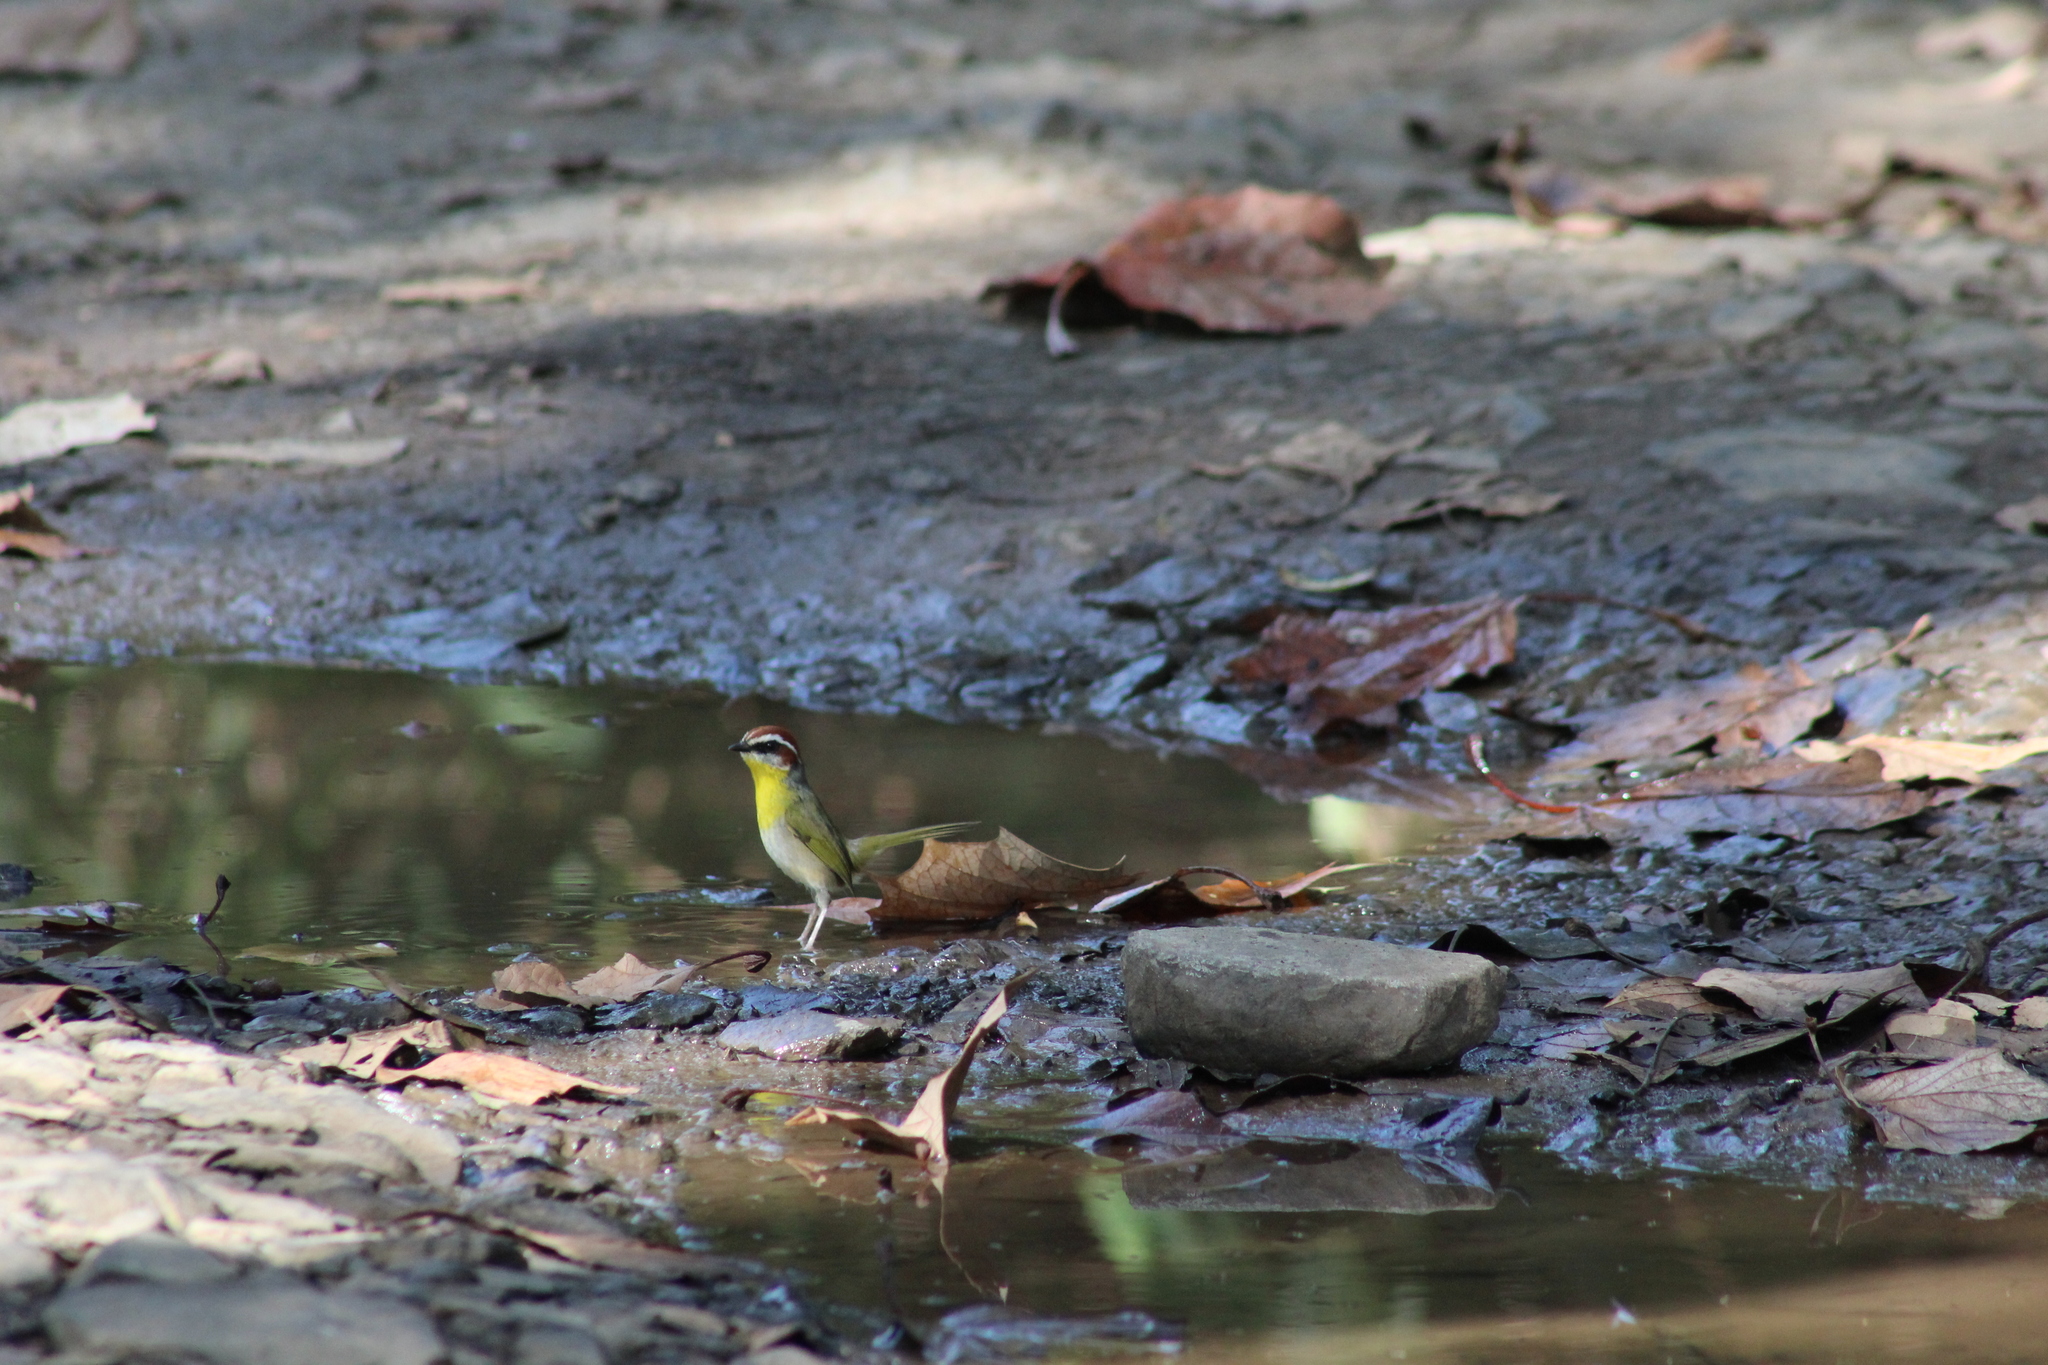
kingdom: Animalia
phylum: Chordata
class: Aves
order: Passeriformes
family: Parulidae
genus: Basileuterus
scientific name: Basileuterus rufifrons
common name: Rufous-capped warbler
